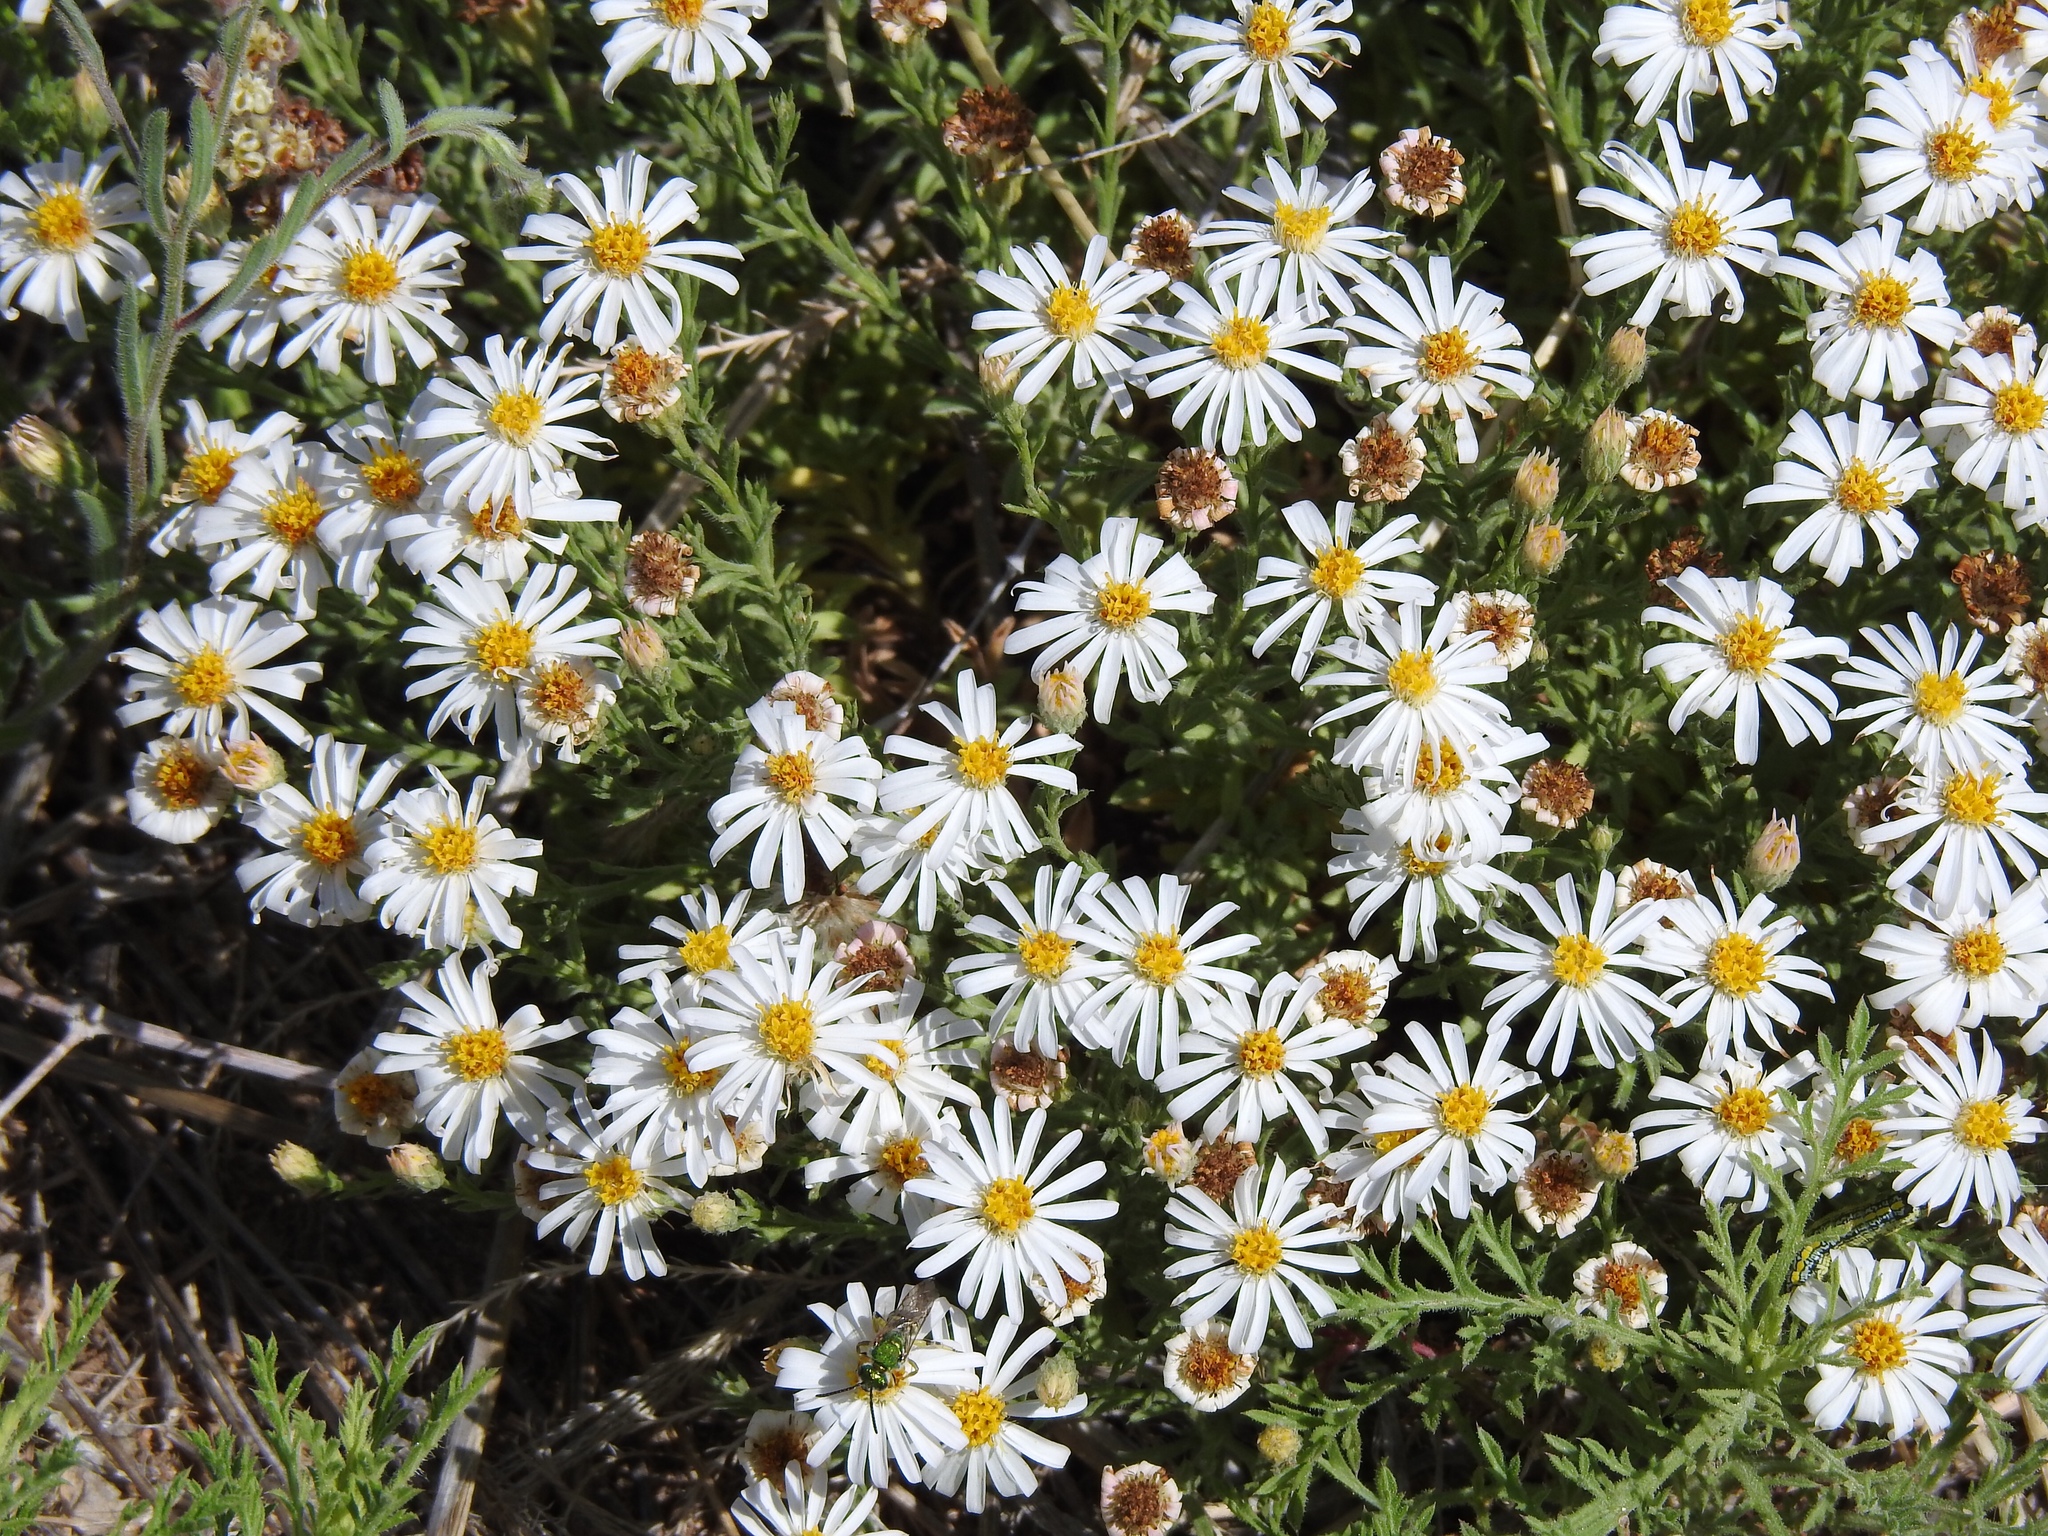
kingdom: Plantae
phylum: Tracheophyta
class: Magnoliopsida
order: Asterales
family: Asteraceae
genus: Chaetopappa
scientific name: Chaetopappa ericoides
